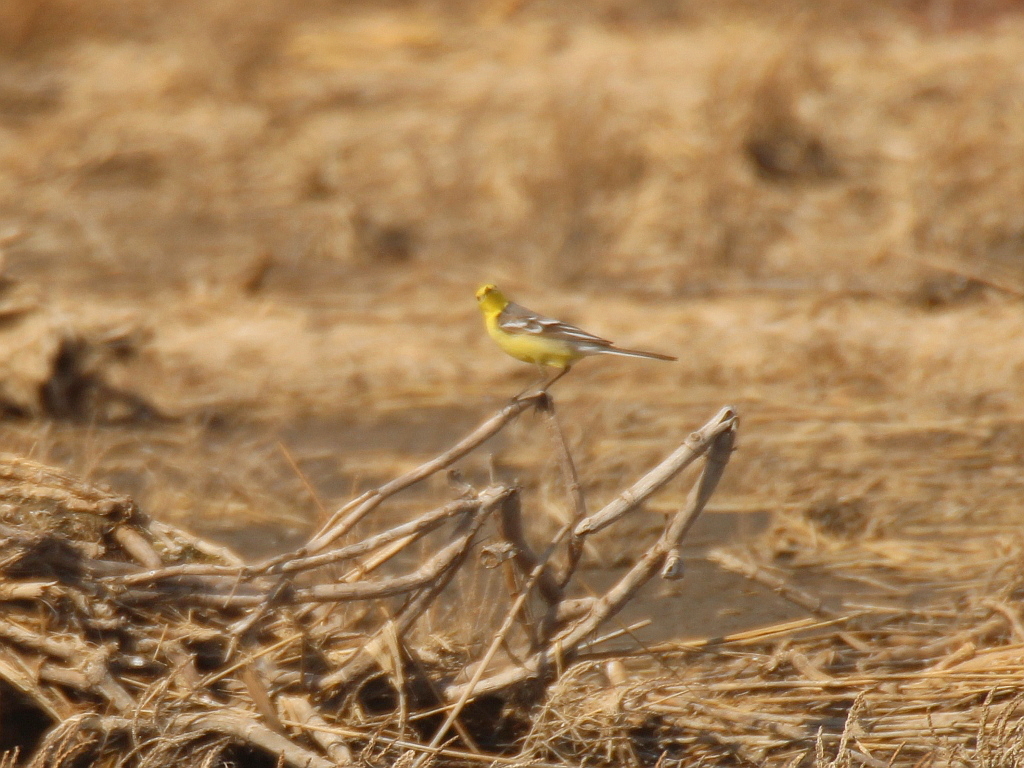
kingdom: Animalia
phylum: Chordata
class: Aves
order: Passeriformes
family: Motacillidae
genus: Motacilla
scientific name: Motacilla citreola
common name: Citrine wagtail
